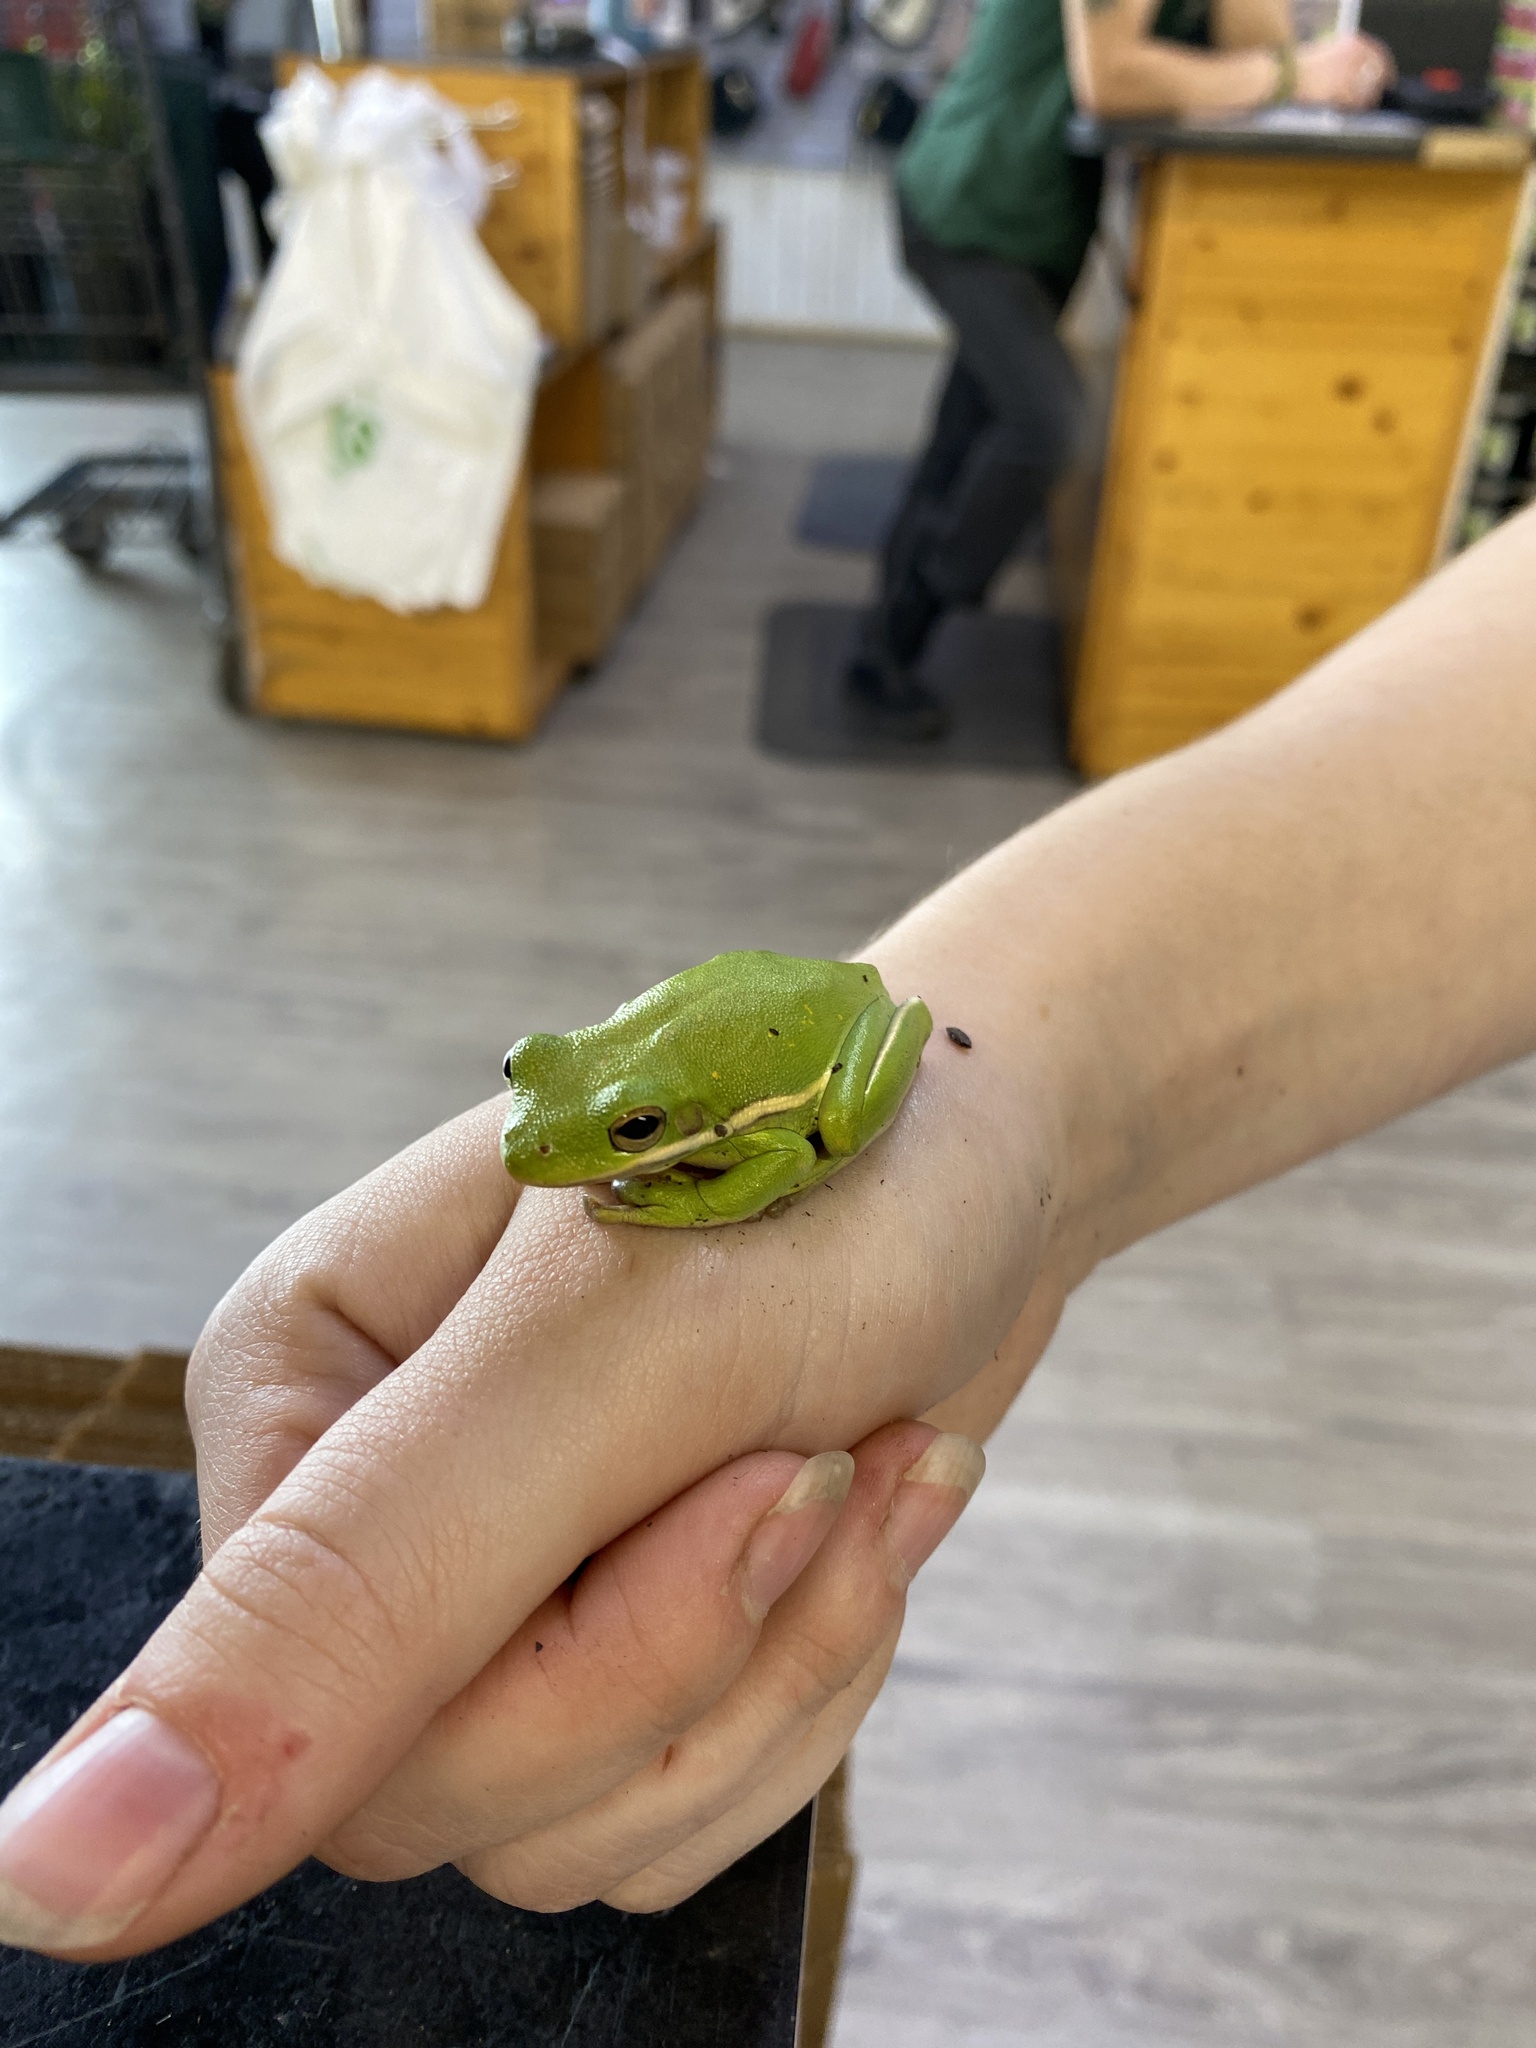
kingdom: Animalia
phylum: Chordata
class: Amphibia
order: Anura
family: Hylidae
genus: Dryophytes
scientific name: Dryophytes cinereus
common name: Green treefrog
